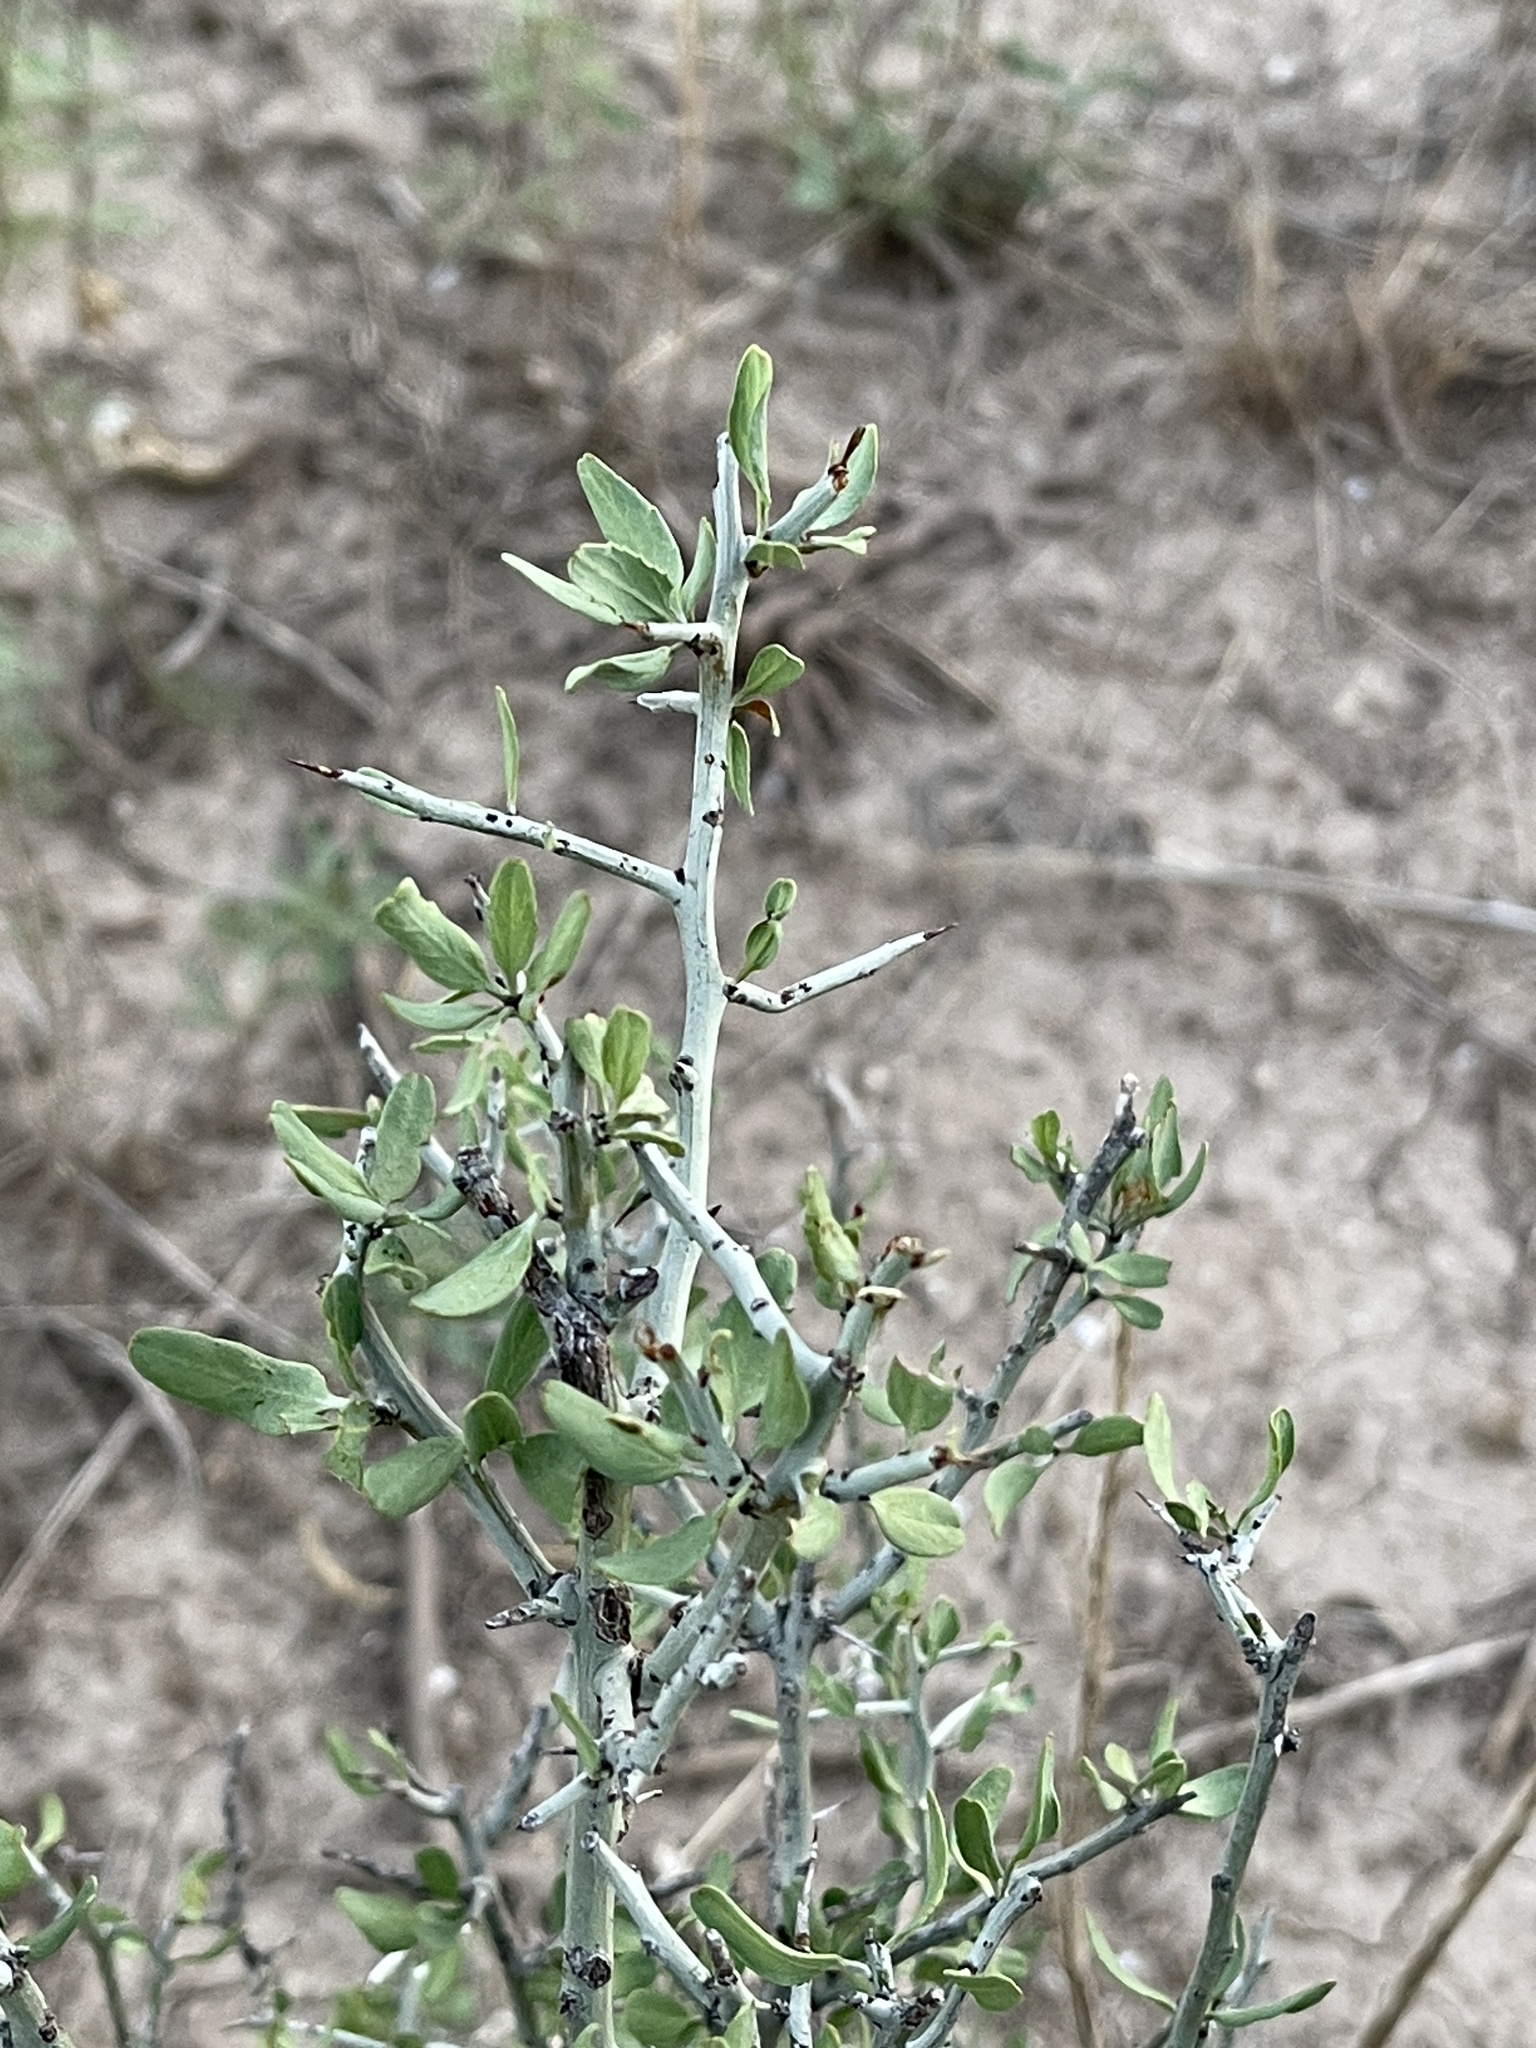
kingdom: Plantae
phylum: Tracheophyta
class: Magnoliopsida
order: Rosales
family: Rhamnaceae
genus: Sarcomphalus
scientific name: Sarcomphalus obtusifolius
